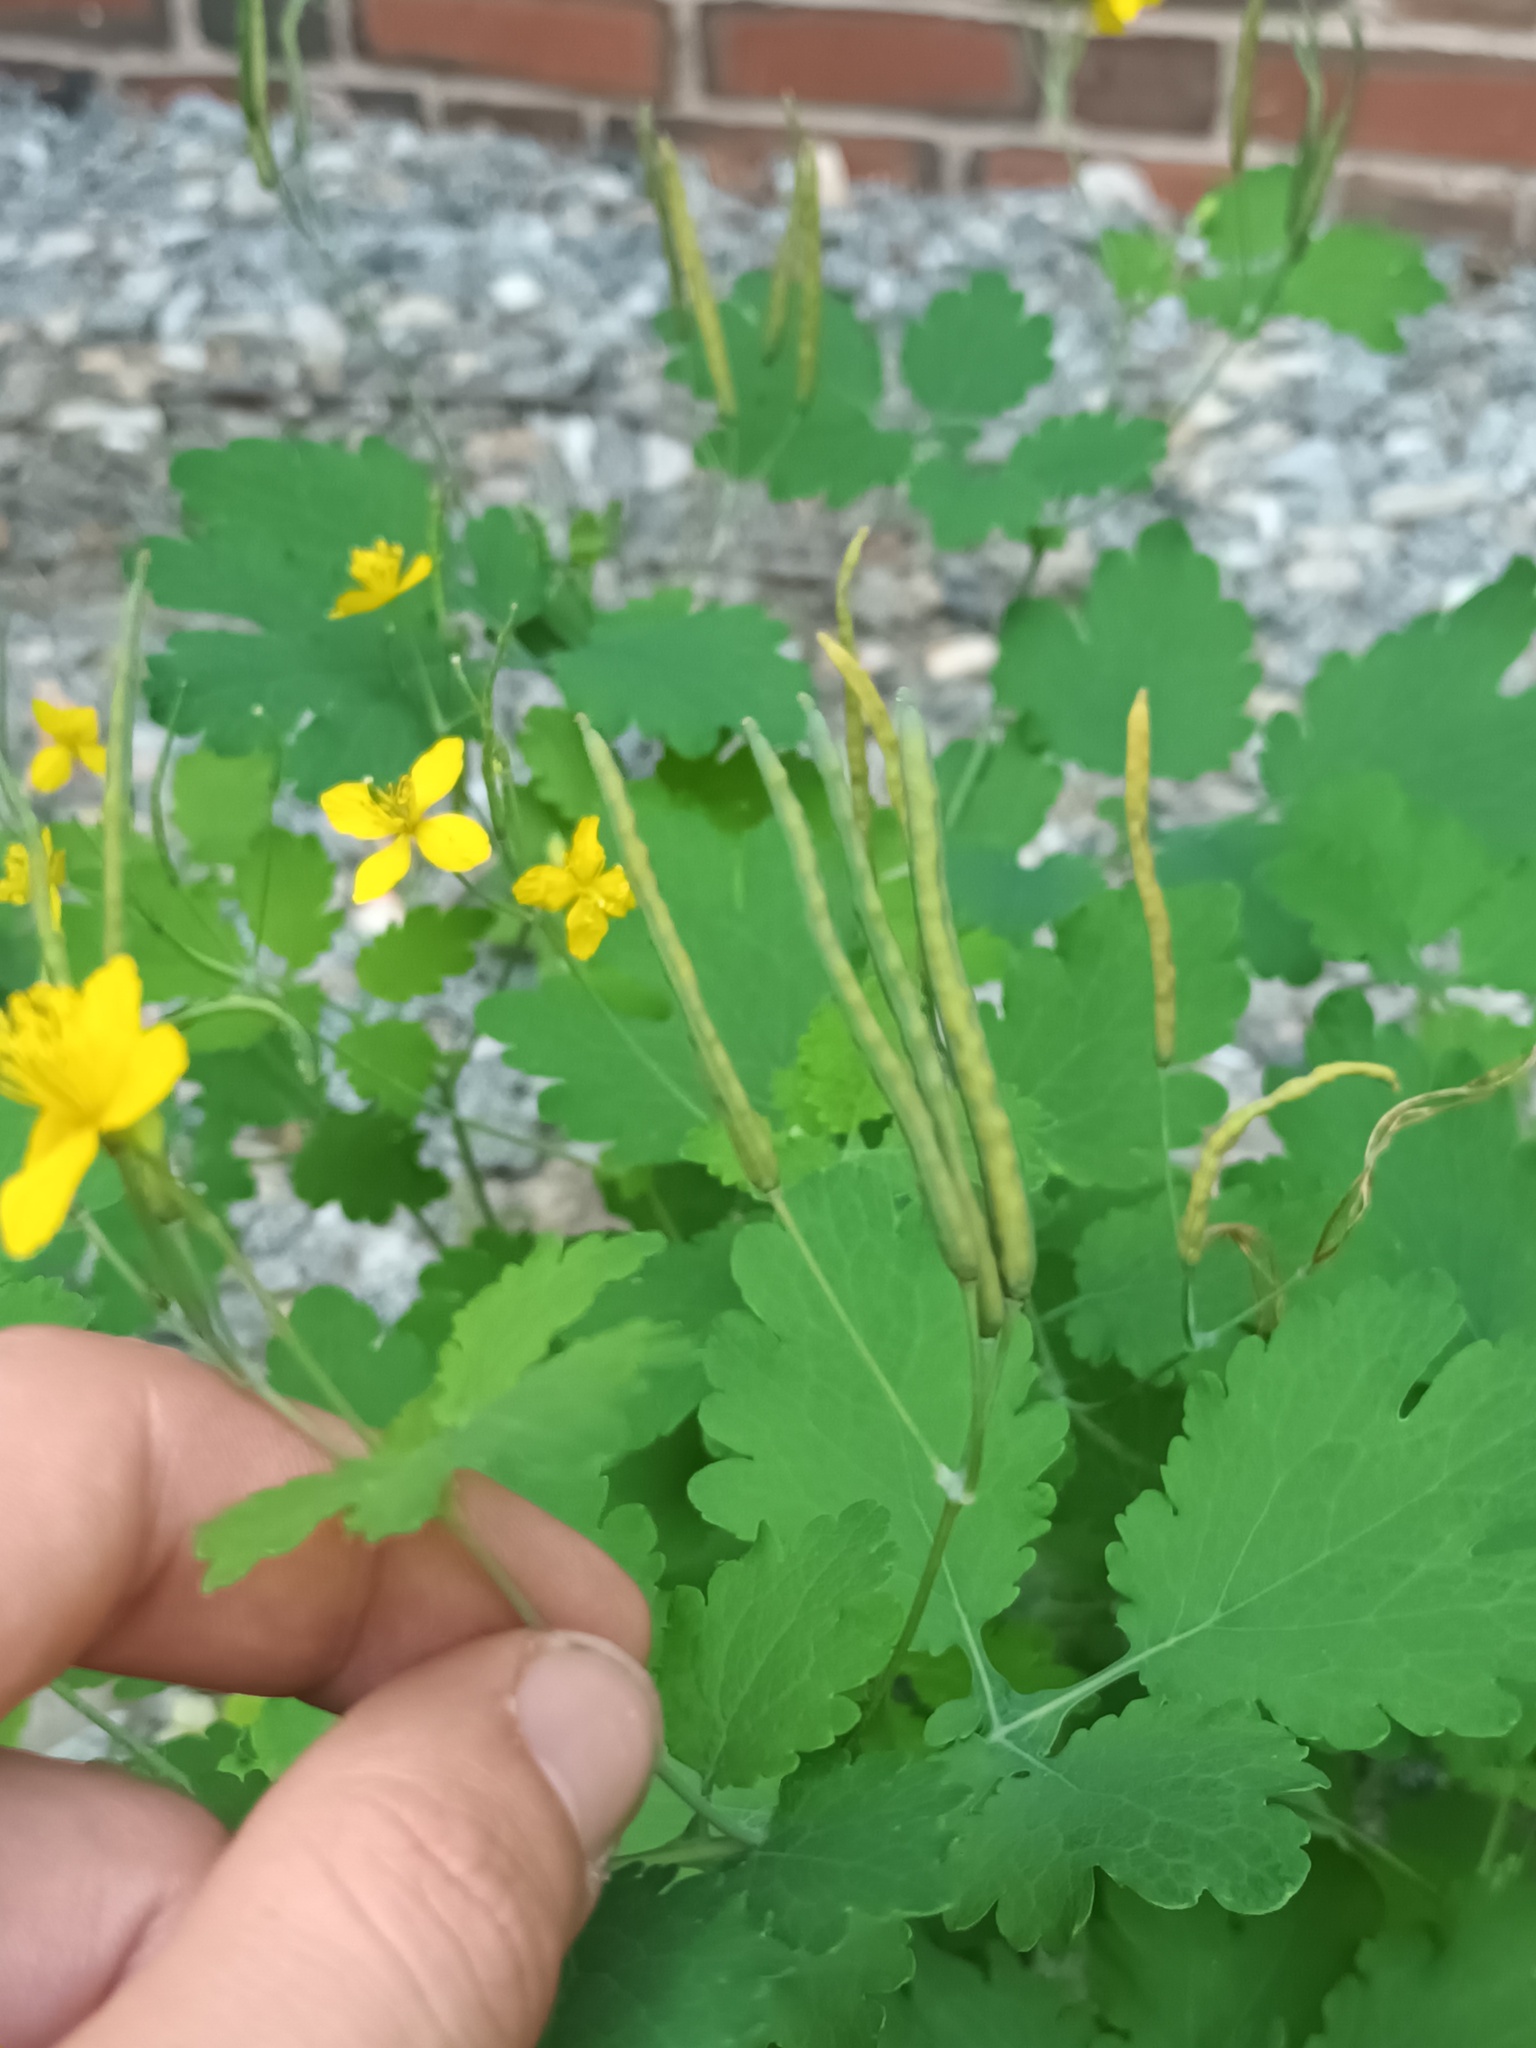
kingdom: Plantae
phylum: Tracheophyta
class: Magnoliopsida
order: Ranunculales
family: Papaveraceae
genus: Chelidonium
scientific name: Chelidonium majus
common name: Greater celandine
